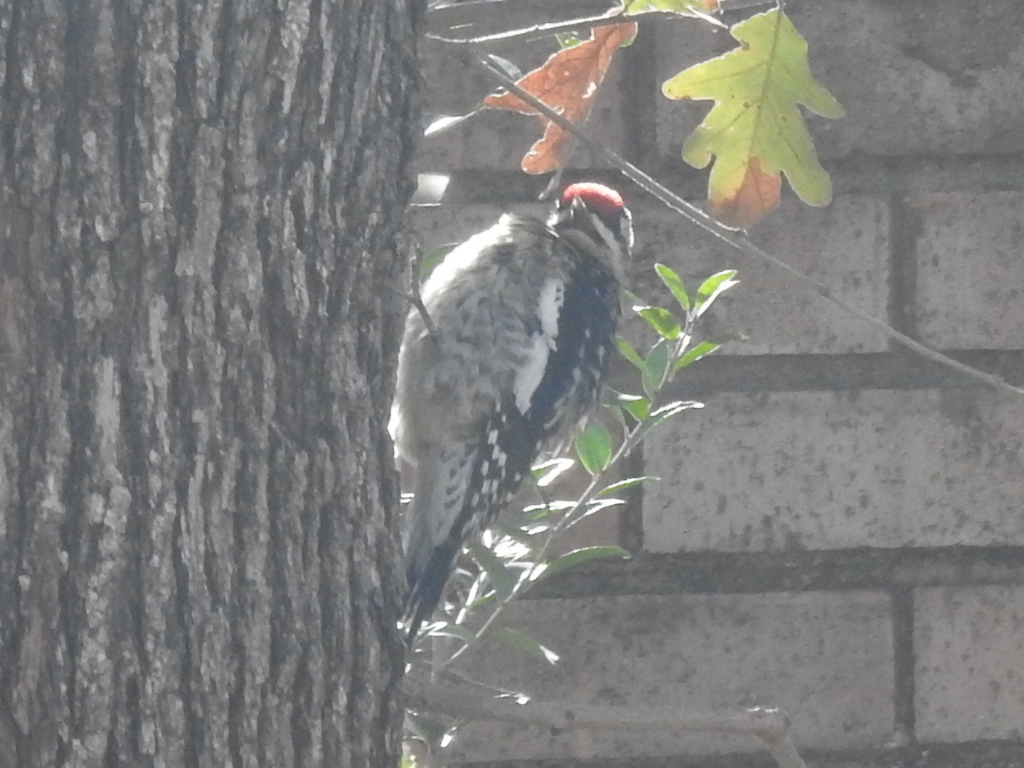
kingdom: Animalia
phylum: Chordata
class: Aves
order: Piciformes
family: Picidae
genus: Sphyrapicus
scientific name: Sphyrapicus varius
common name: Yellow-bellied sapsucker
